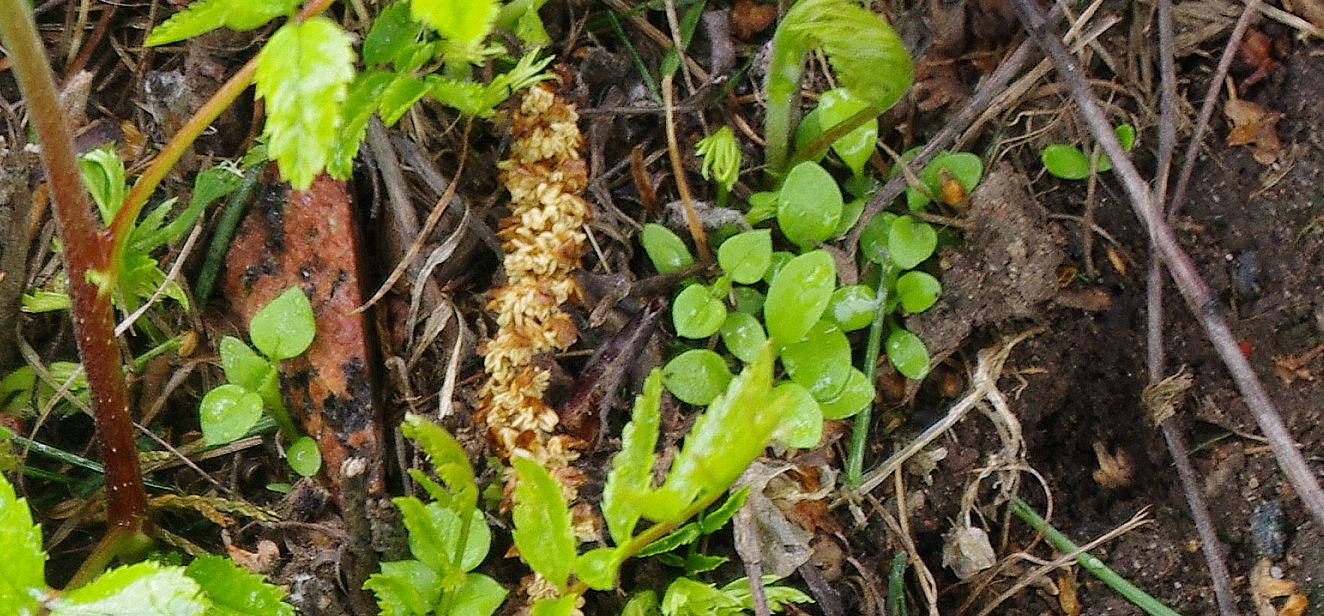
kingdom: Plantae
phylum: Tracheophyta
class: Magnoliopsida
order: Caryophyllales
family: Caryophyllaceae
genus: Stellaria
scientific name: Stellaria media
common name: Common chickweed
